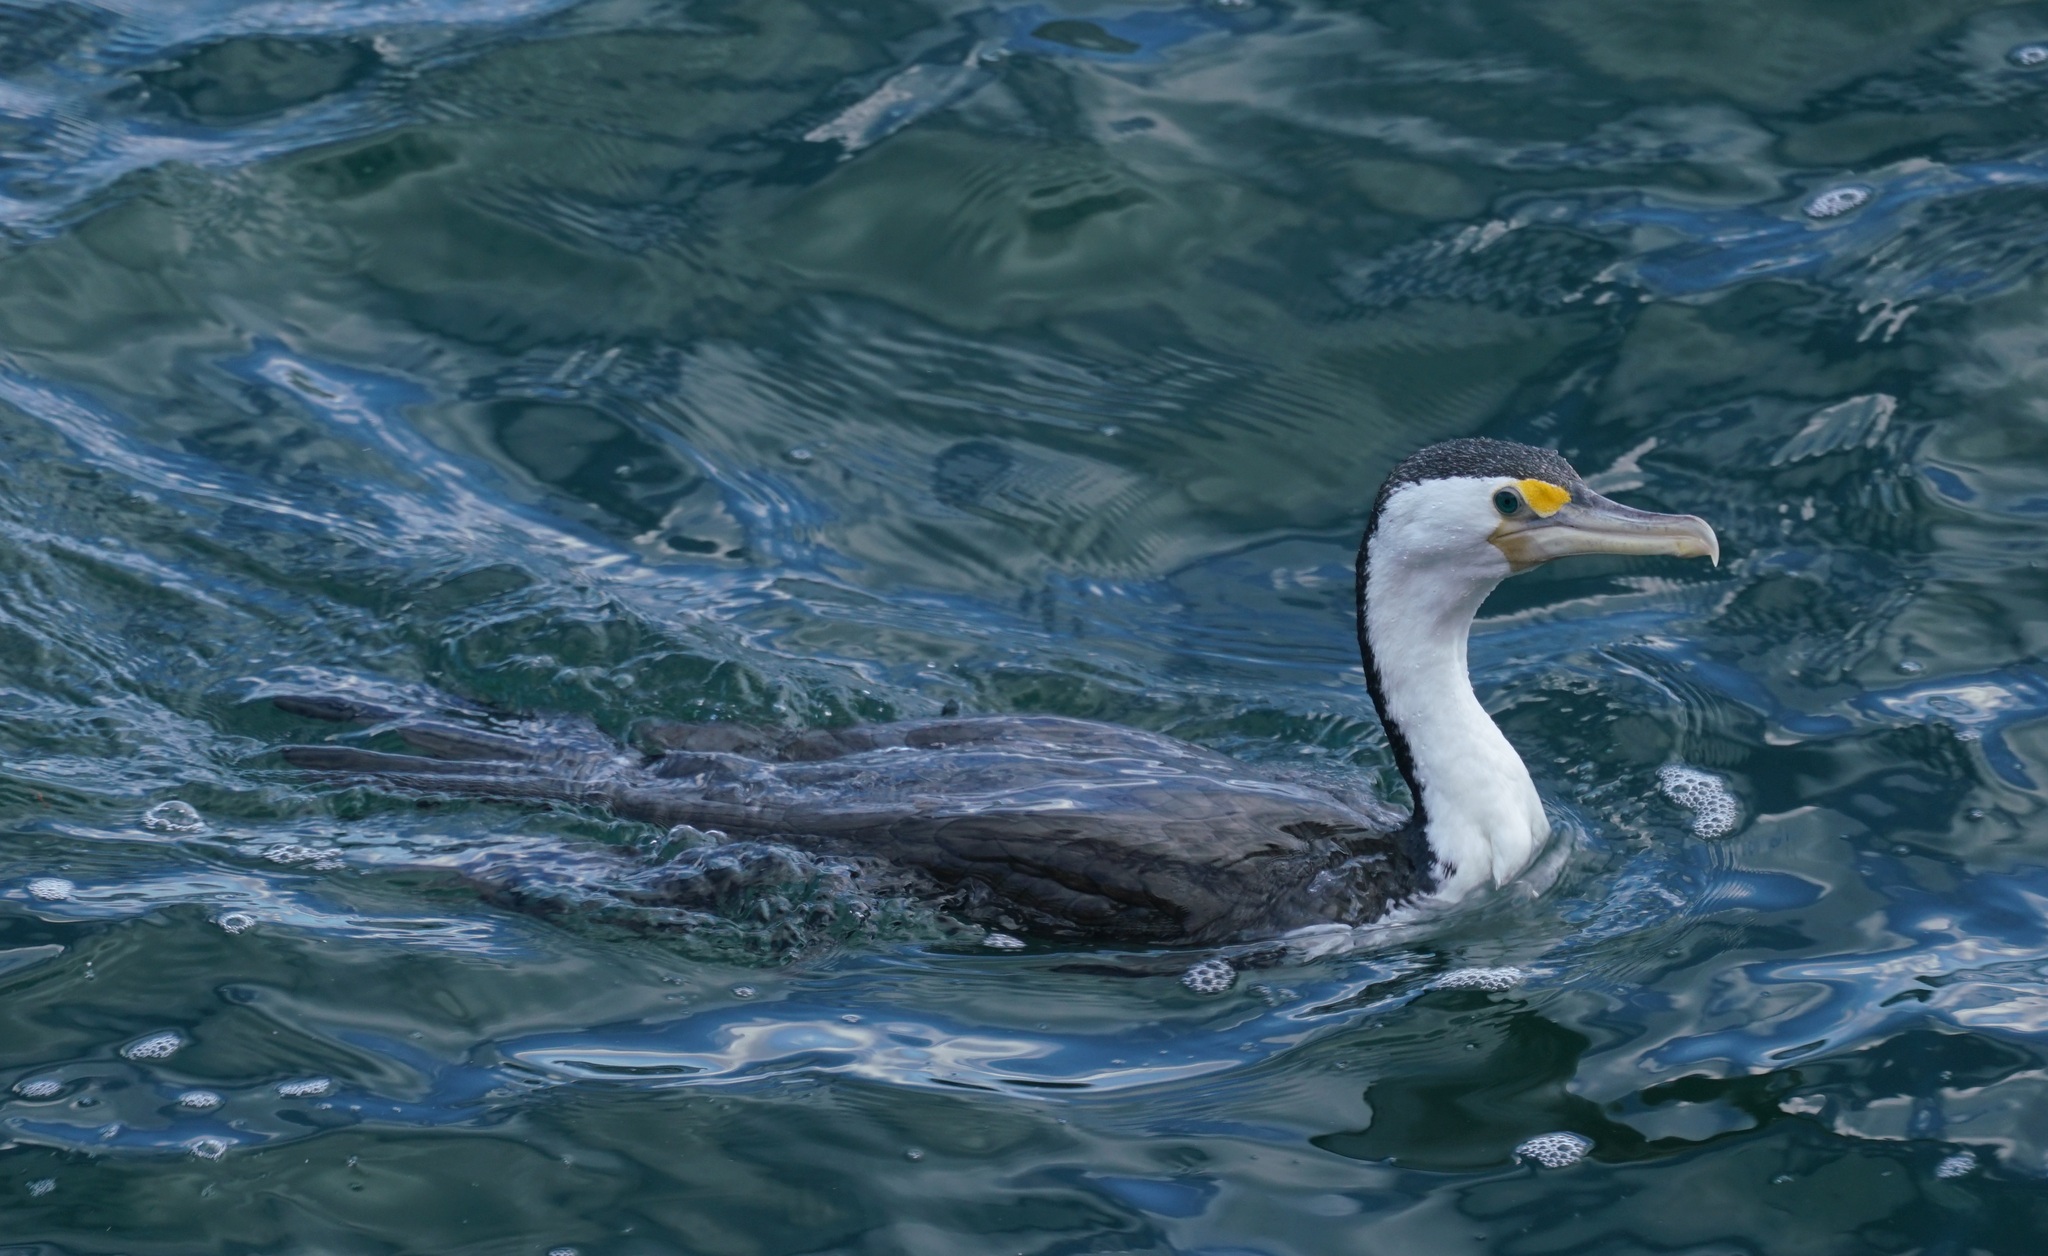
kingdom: Animalia
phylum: Chordata
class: Aves
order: Suliformes
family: Phalacrocoracidae
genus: Phalacrocorax
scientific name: Phalacrocorax varius
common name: Pied cormorant
